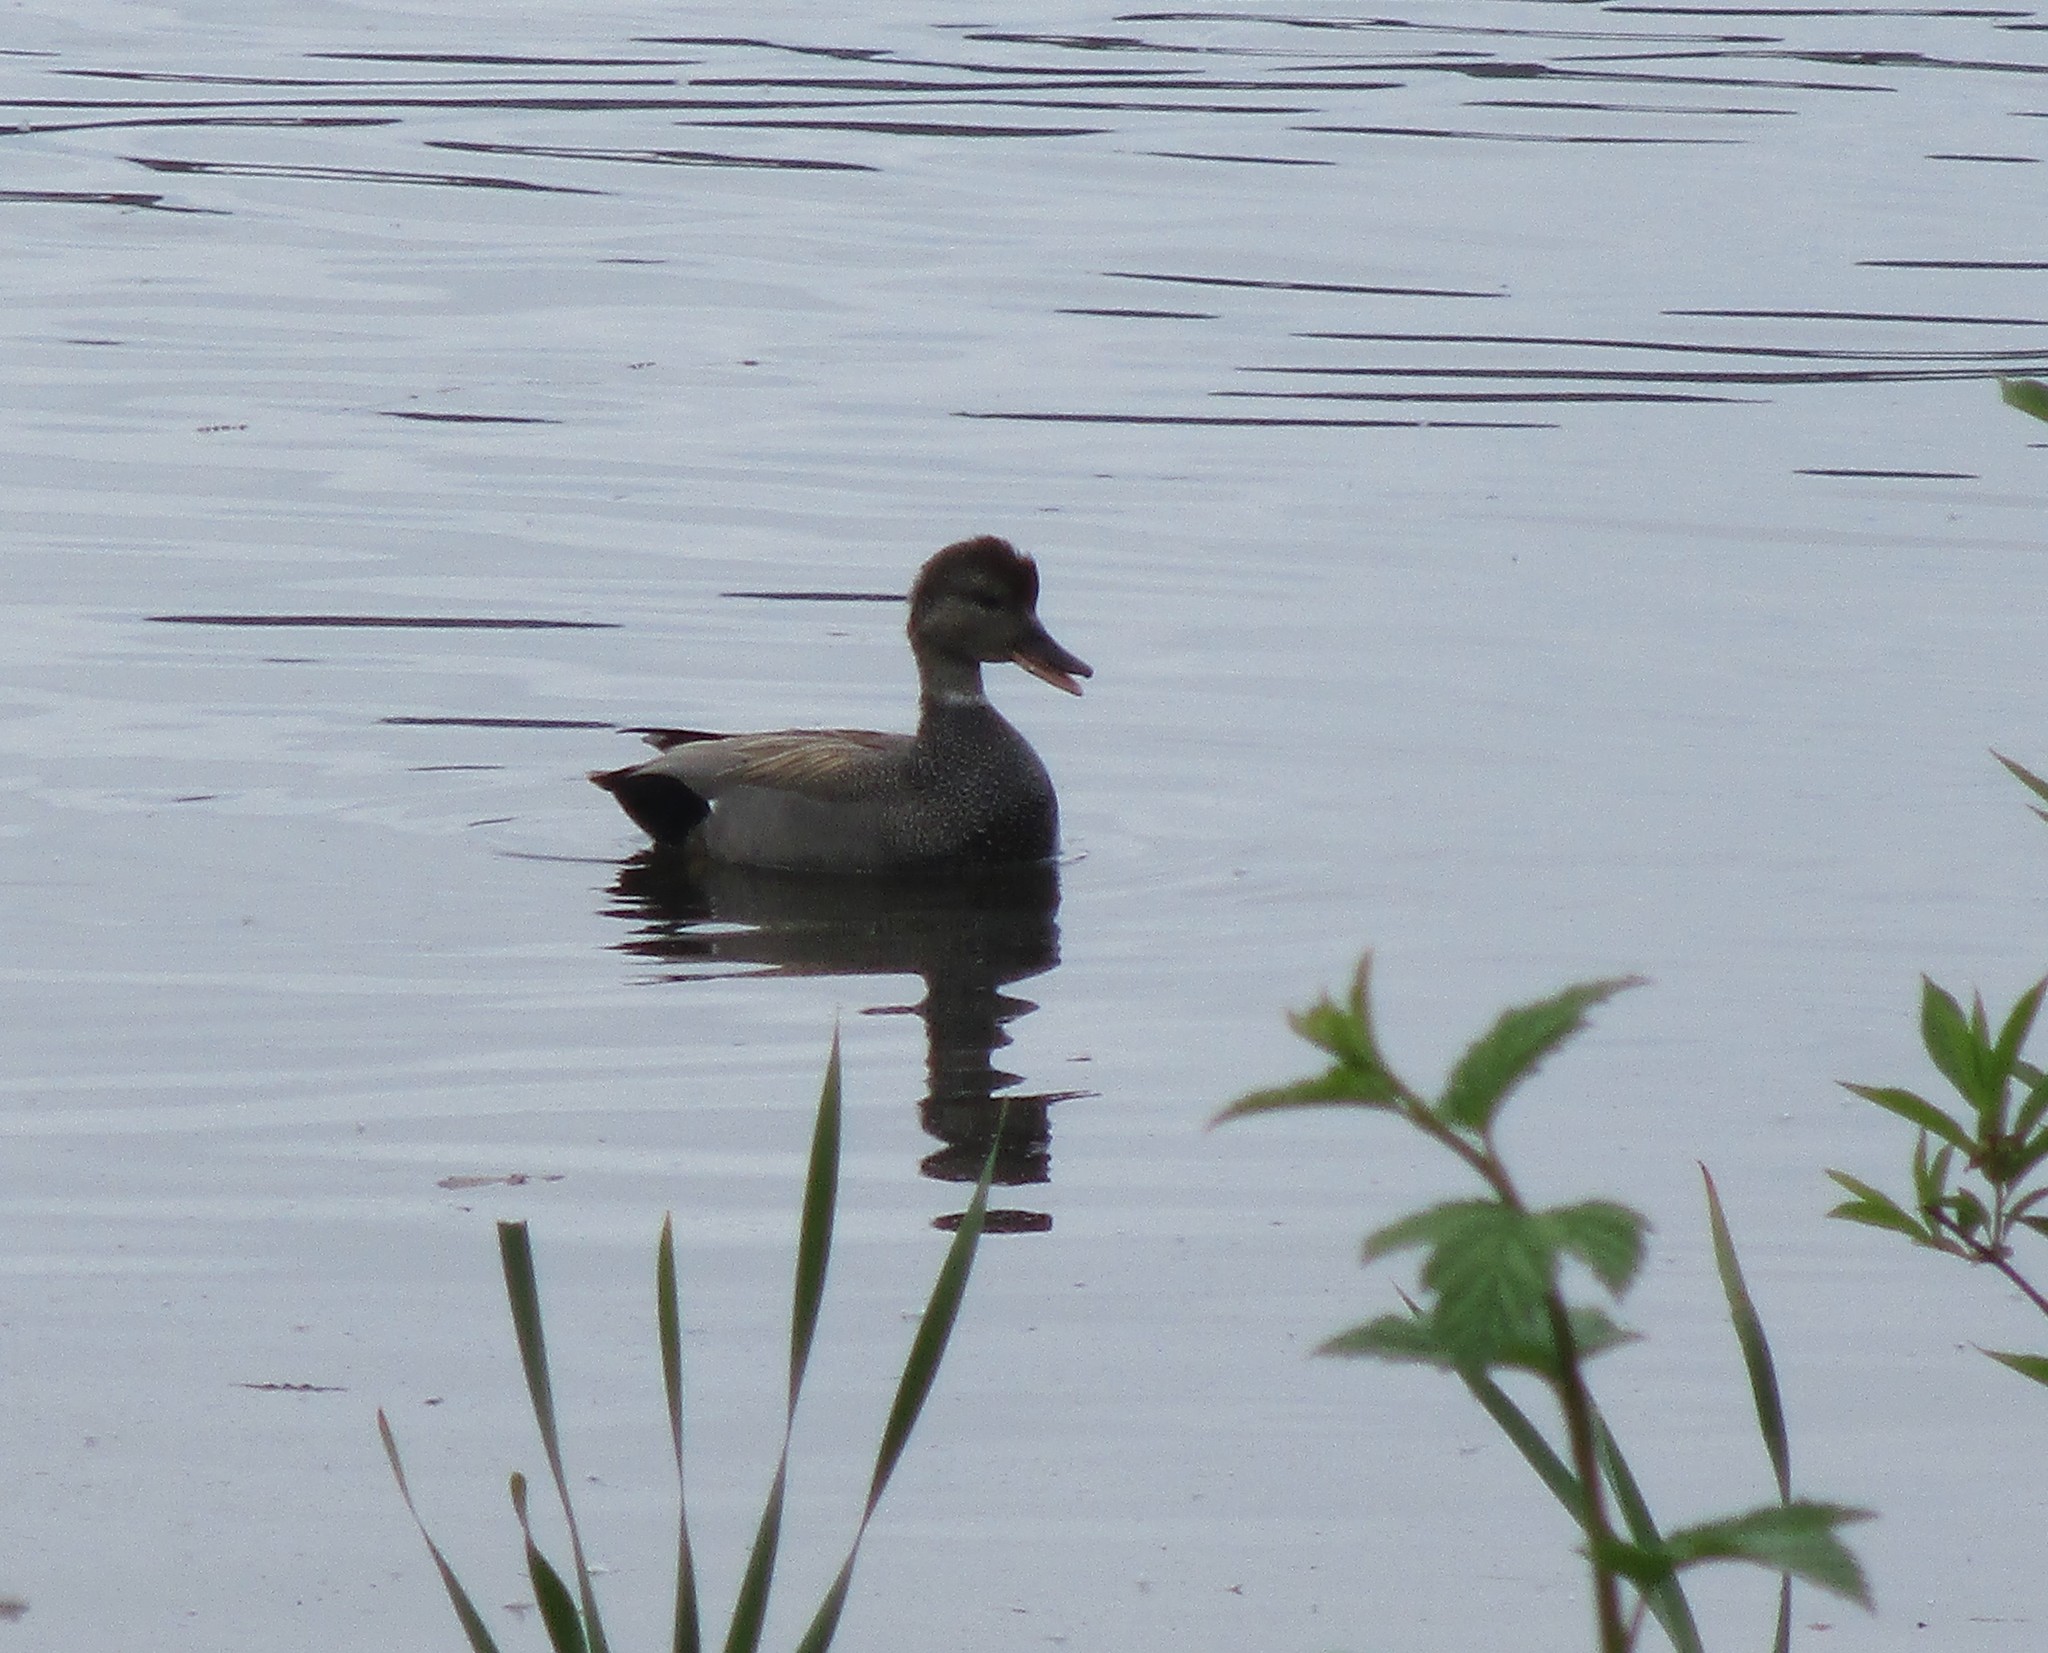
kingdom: Animalia
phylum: Chordata
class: Aves
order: Anseriformes
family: Anatidae
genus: Mareca
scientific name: Mareca strepera
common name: Gadwall
